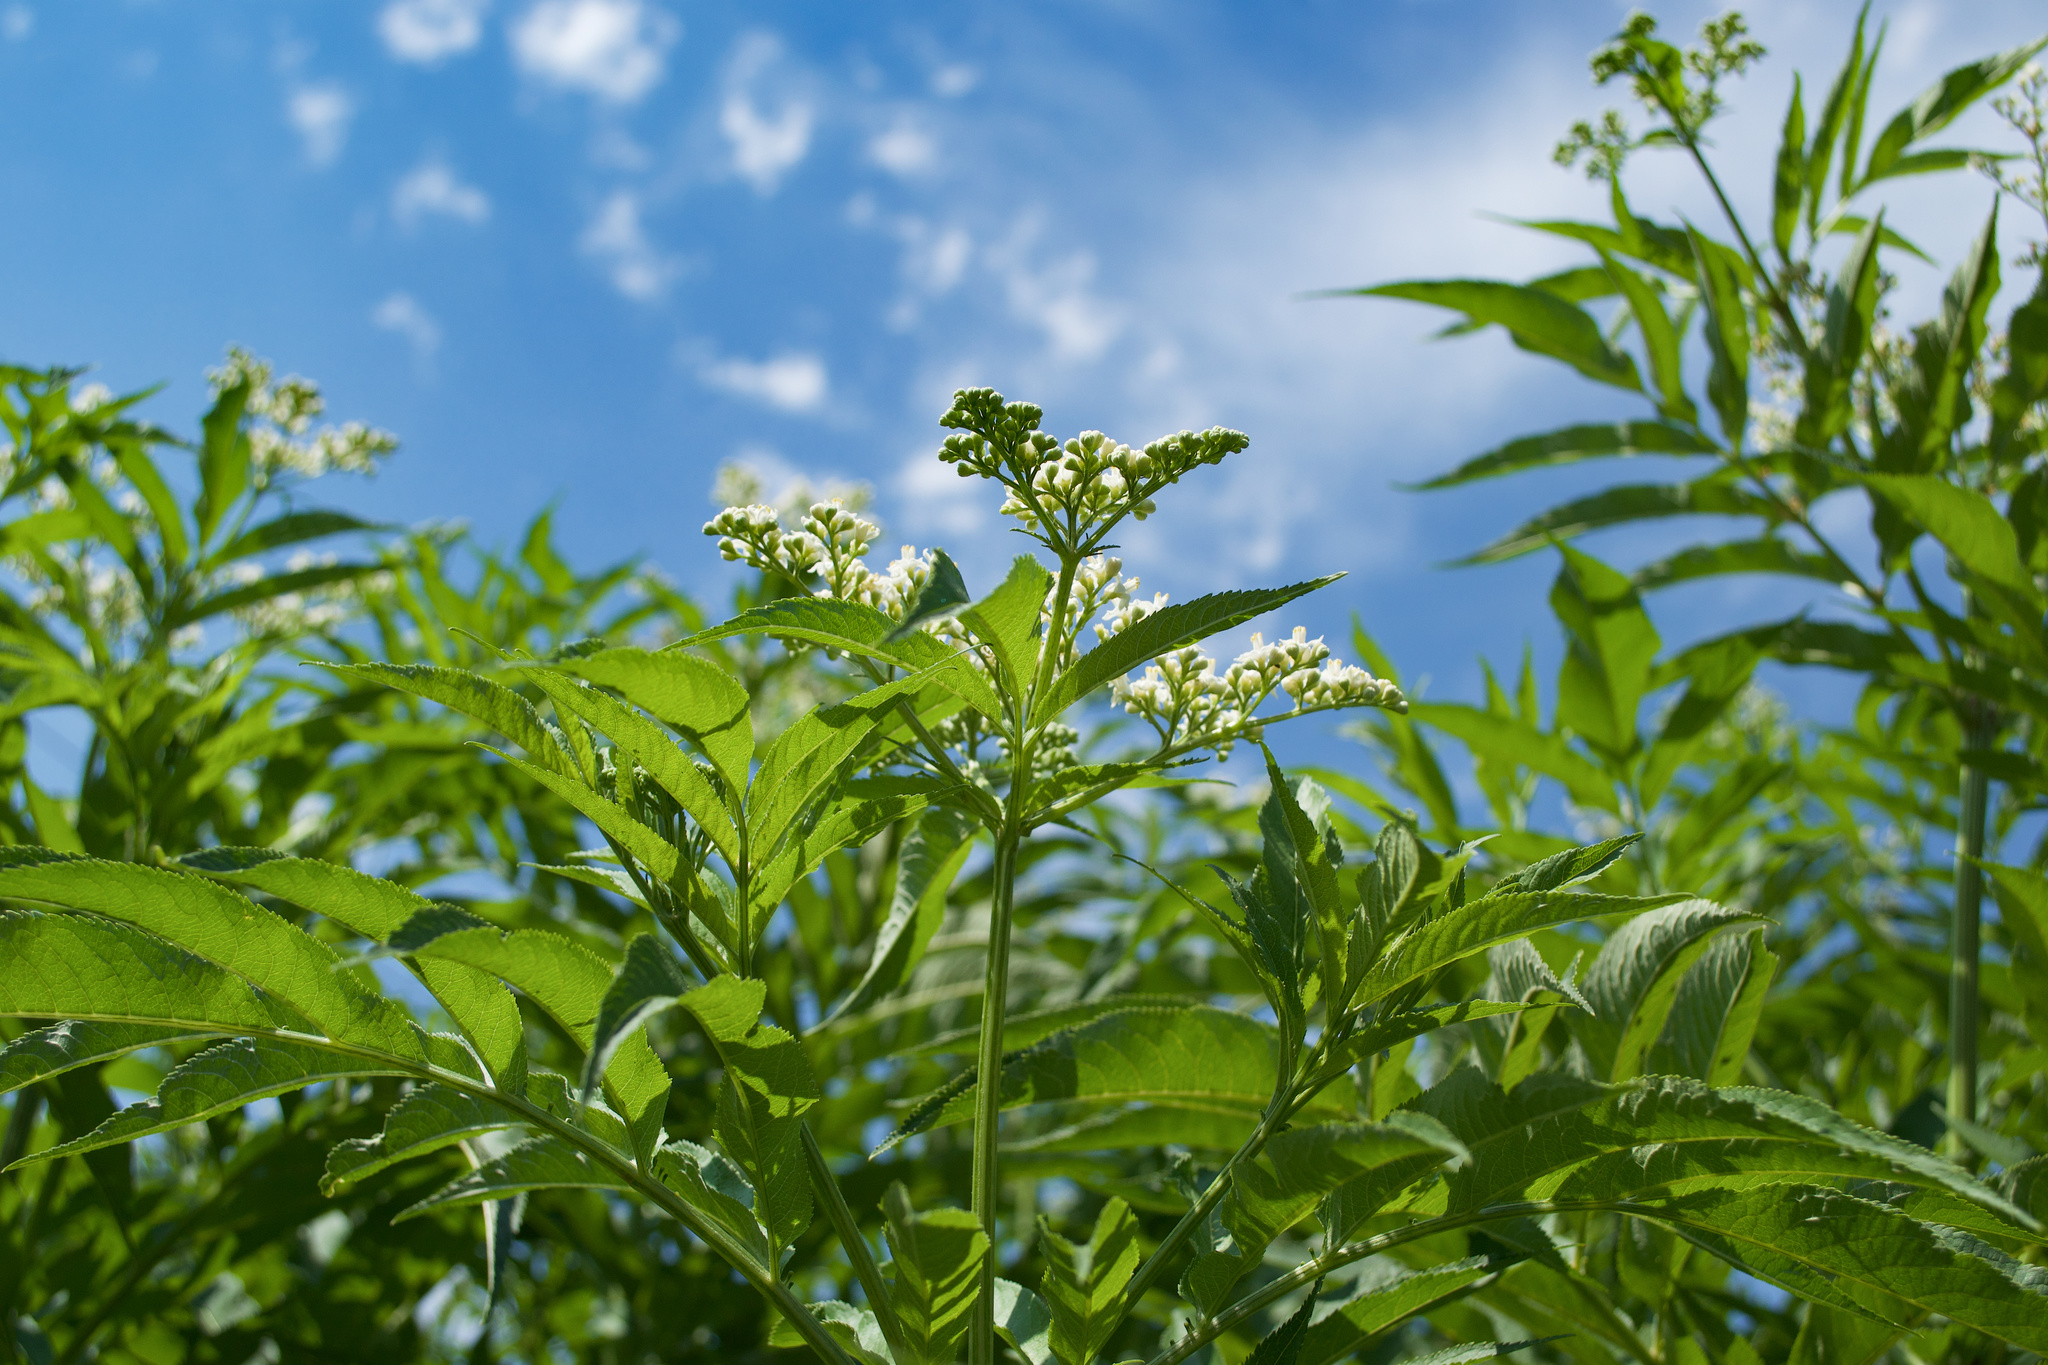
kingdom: Plantae
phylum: Tracheophyta
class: Magnoliopsida
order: Dipsacales
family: Viburnaceae
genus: Sambucus
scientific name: Sambucus ebulus
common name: Dwarf elder
